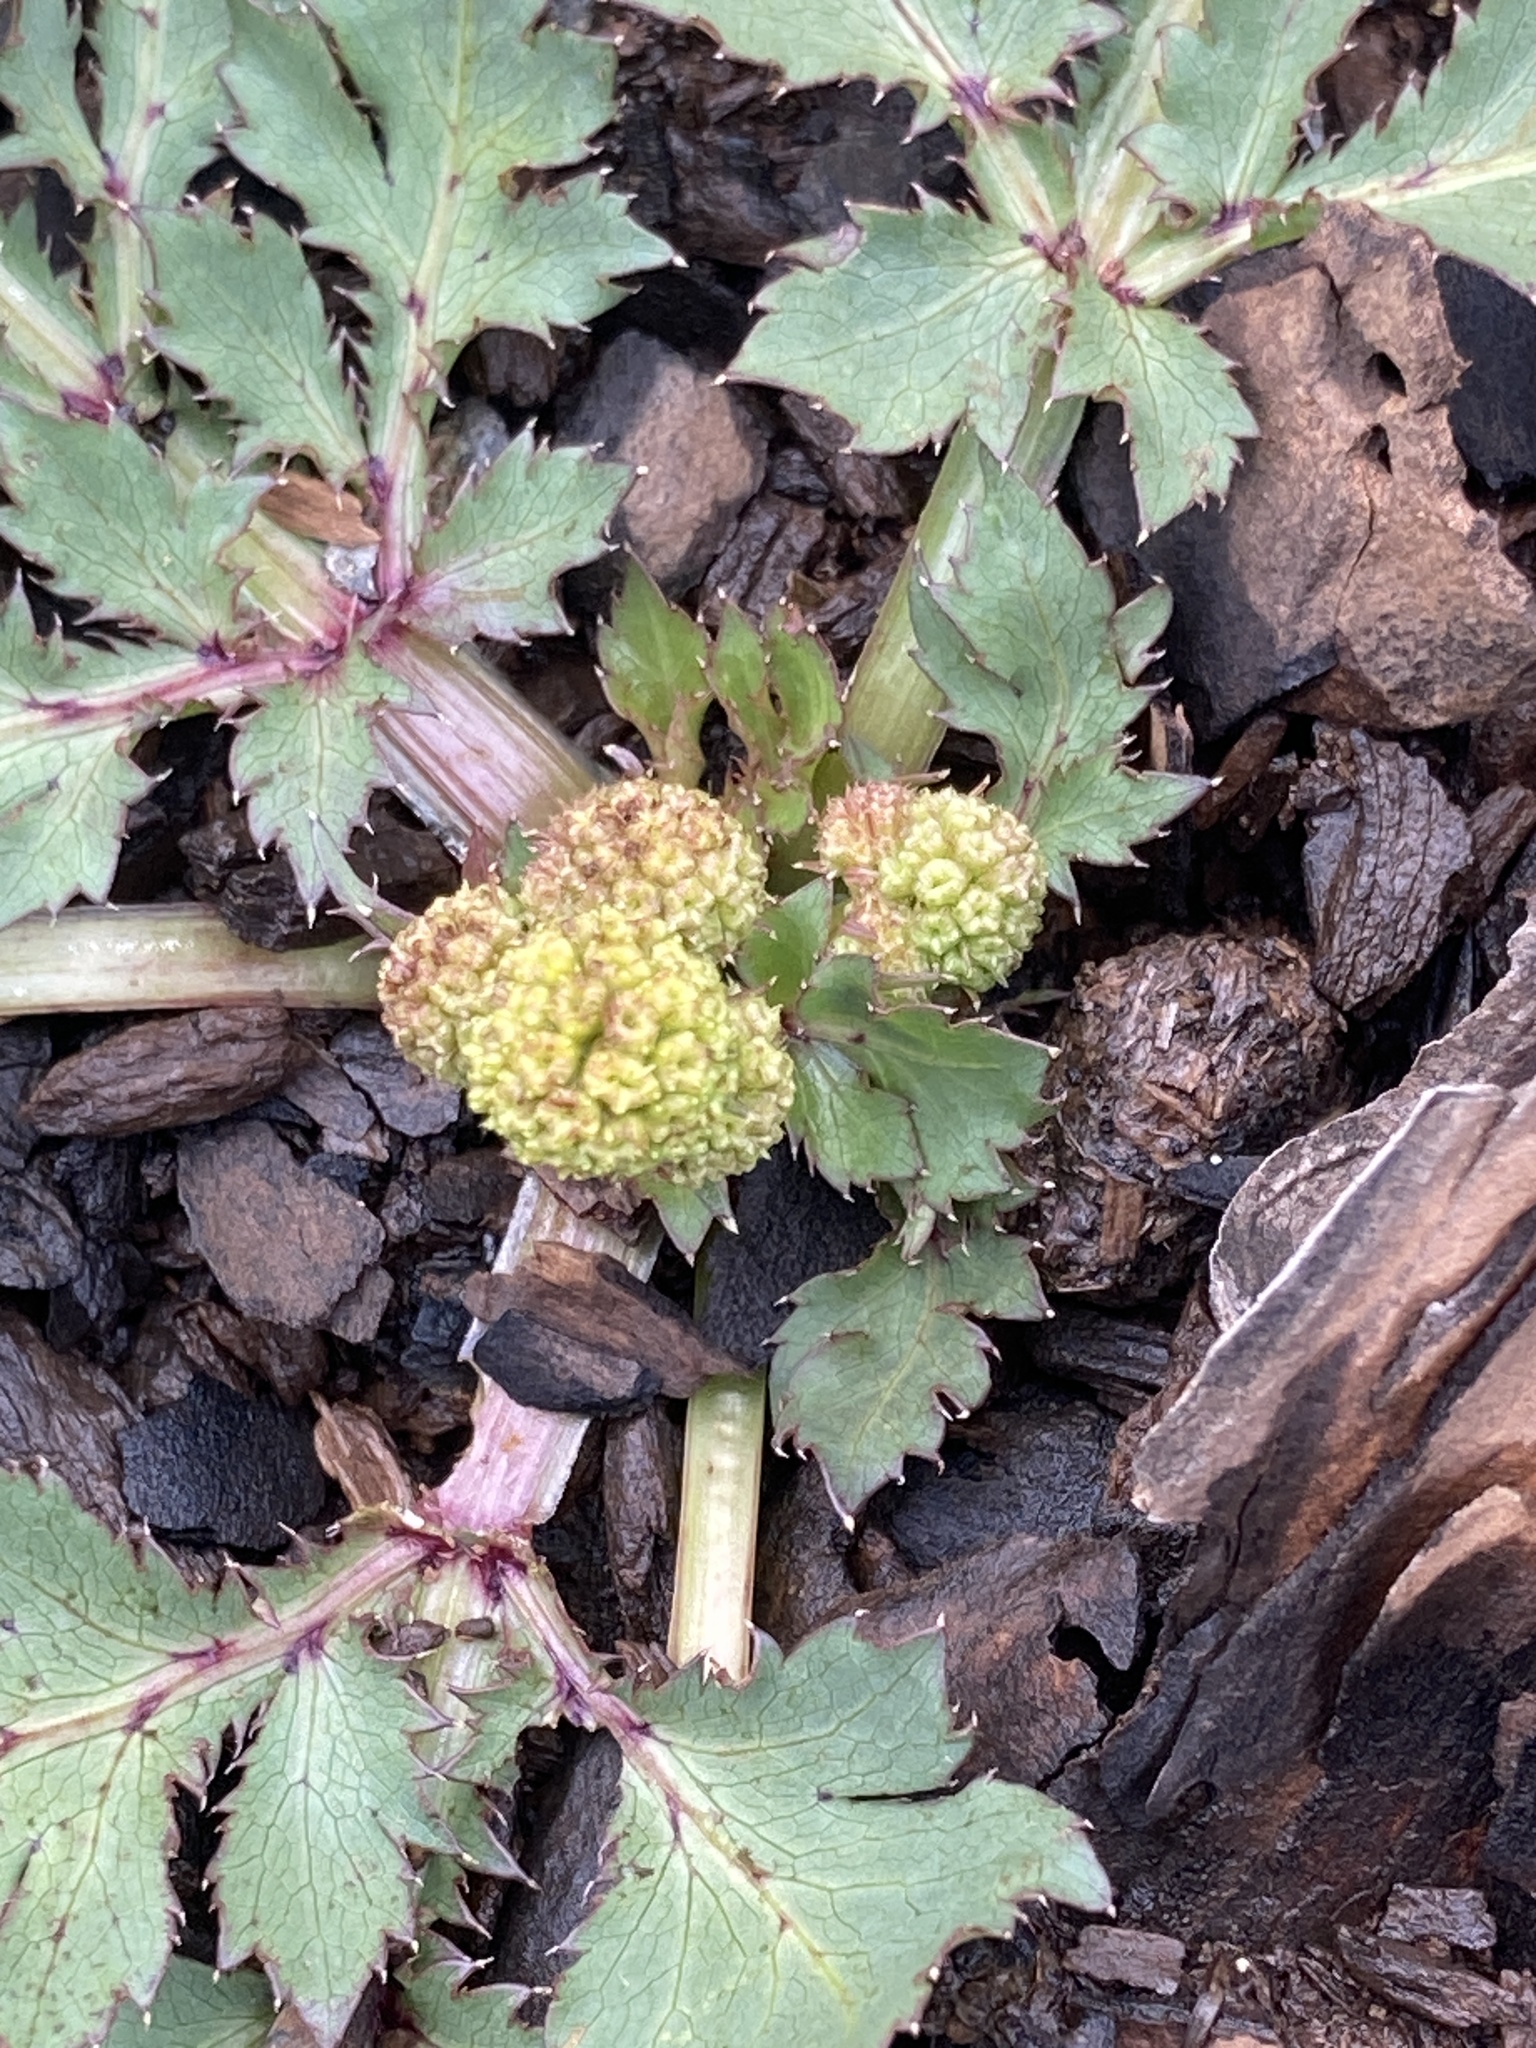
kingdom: Plantae
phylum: Tracheophyta
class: Magnoliopsida
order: Apiales
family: Apiaceae
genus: Sanicula
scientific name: Sanicula bipinnatifida
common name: Shoe-buttons
